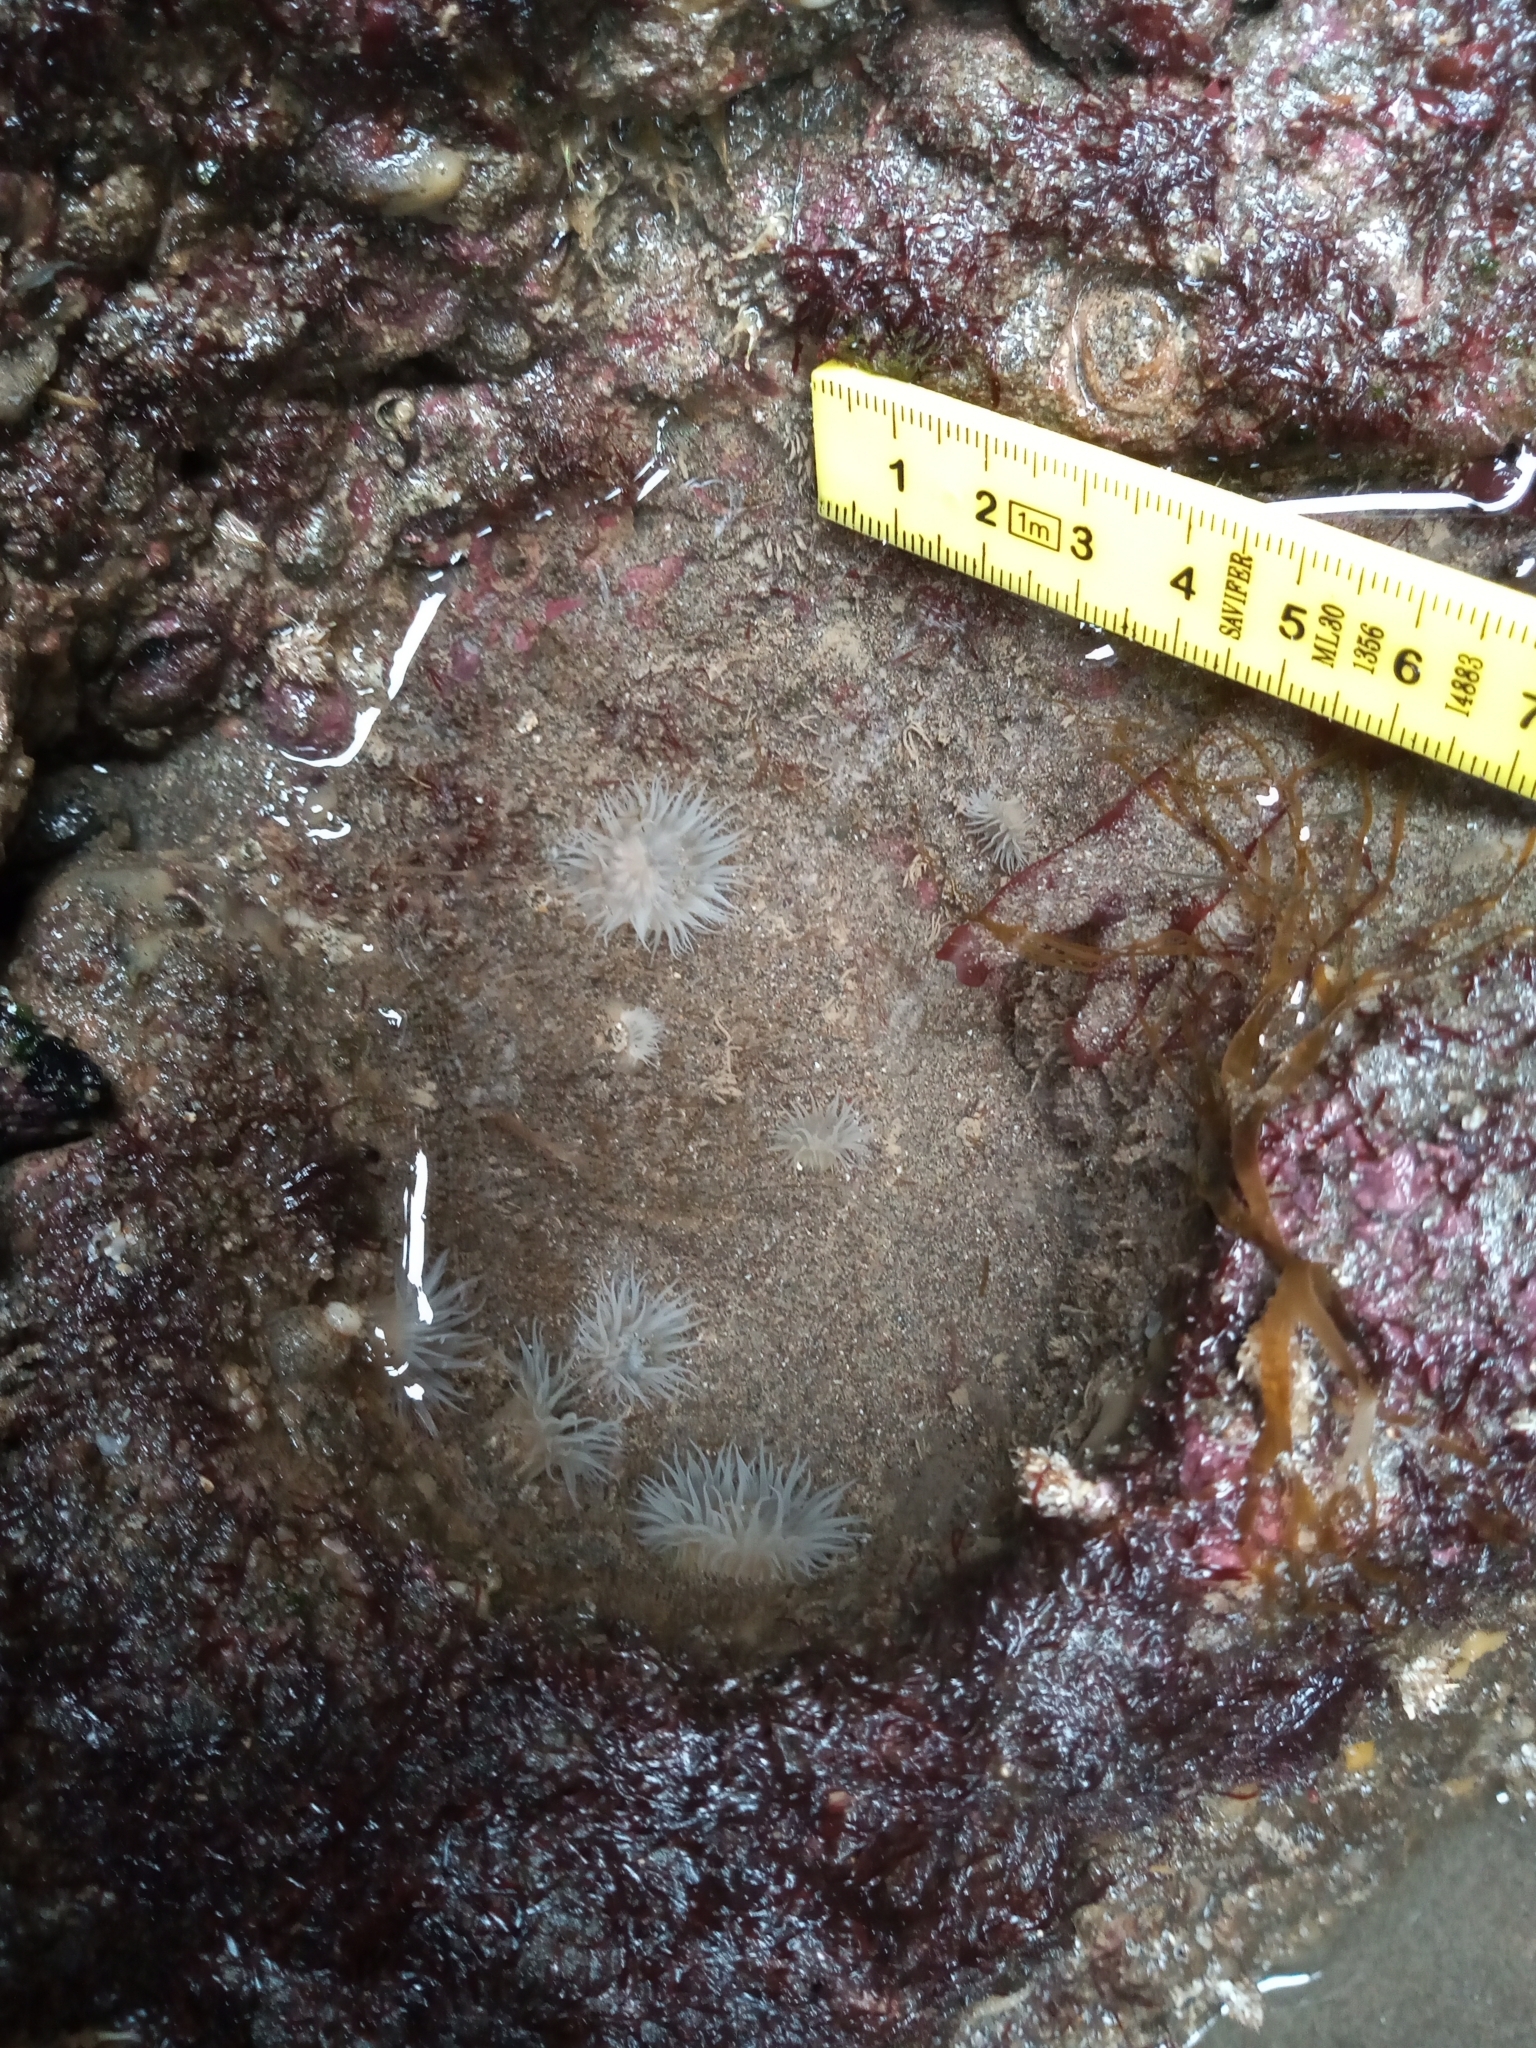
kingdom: Animalia
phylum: Cnidaria
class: Anthozoa
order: Actiniaria
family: Sagartiidae
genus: Anthothoe
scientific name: Anthothoe chilensis
